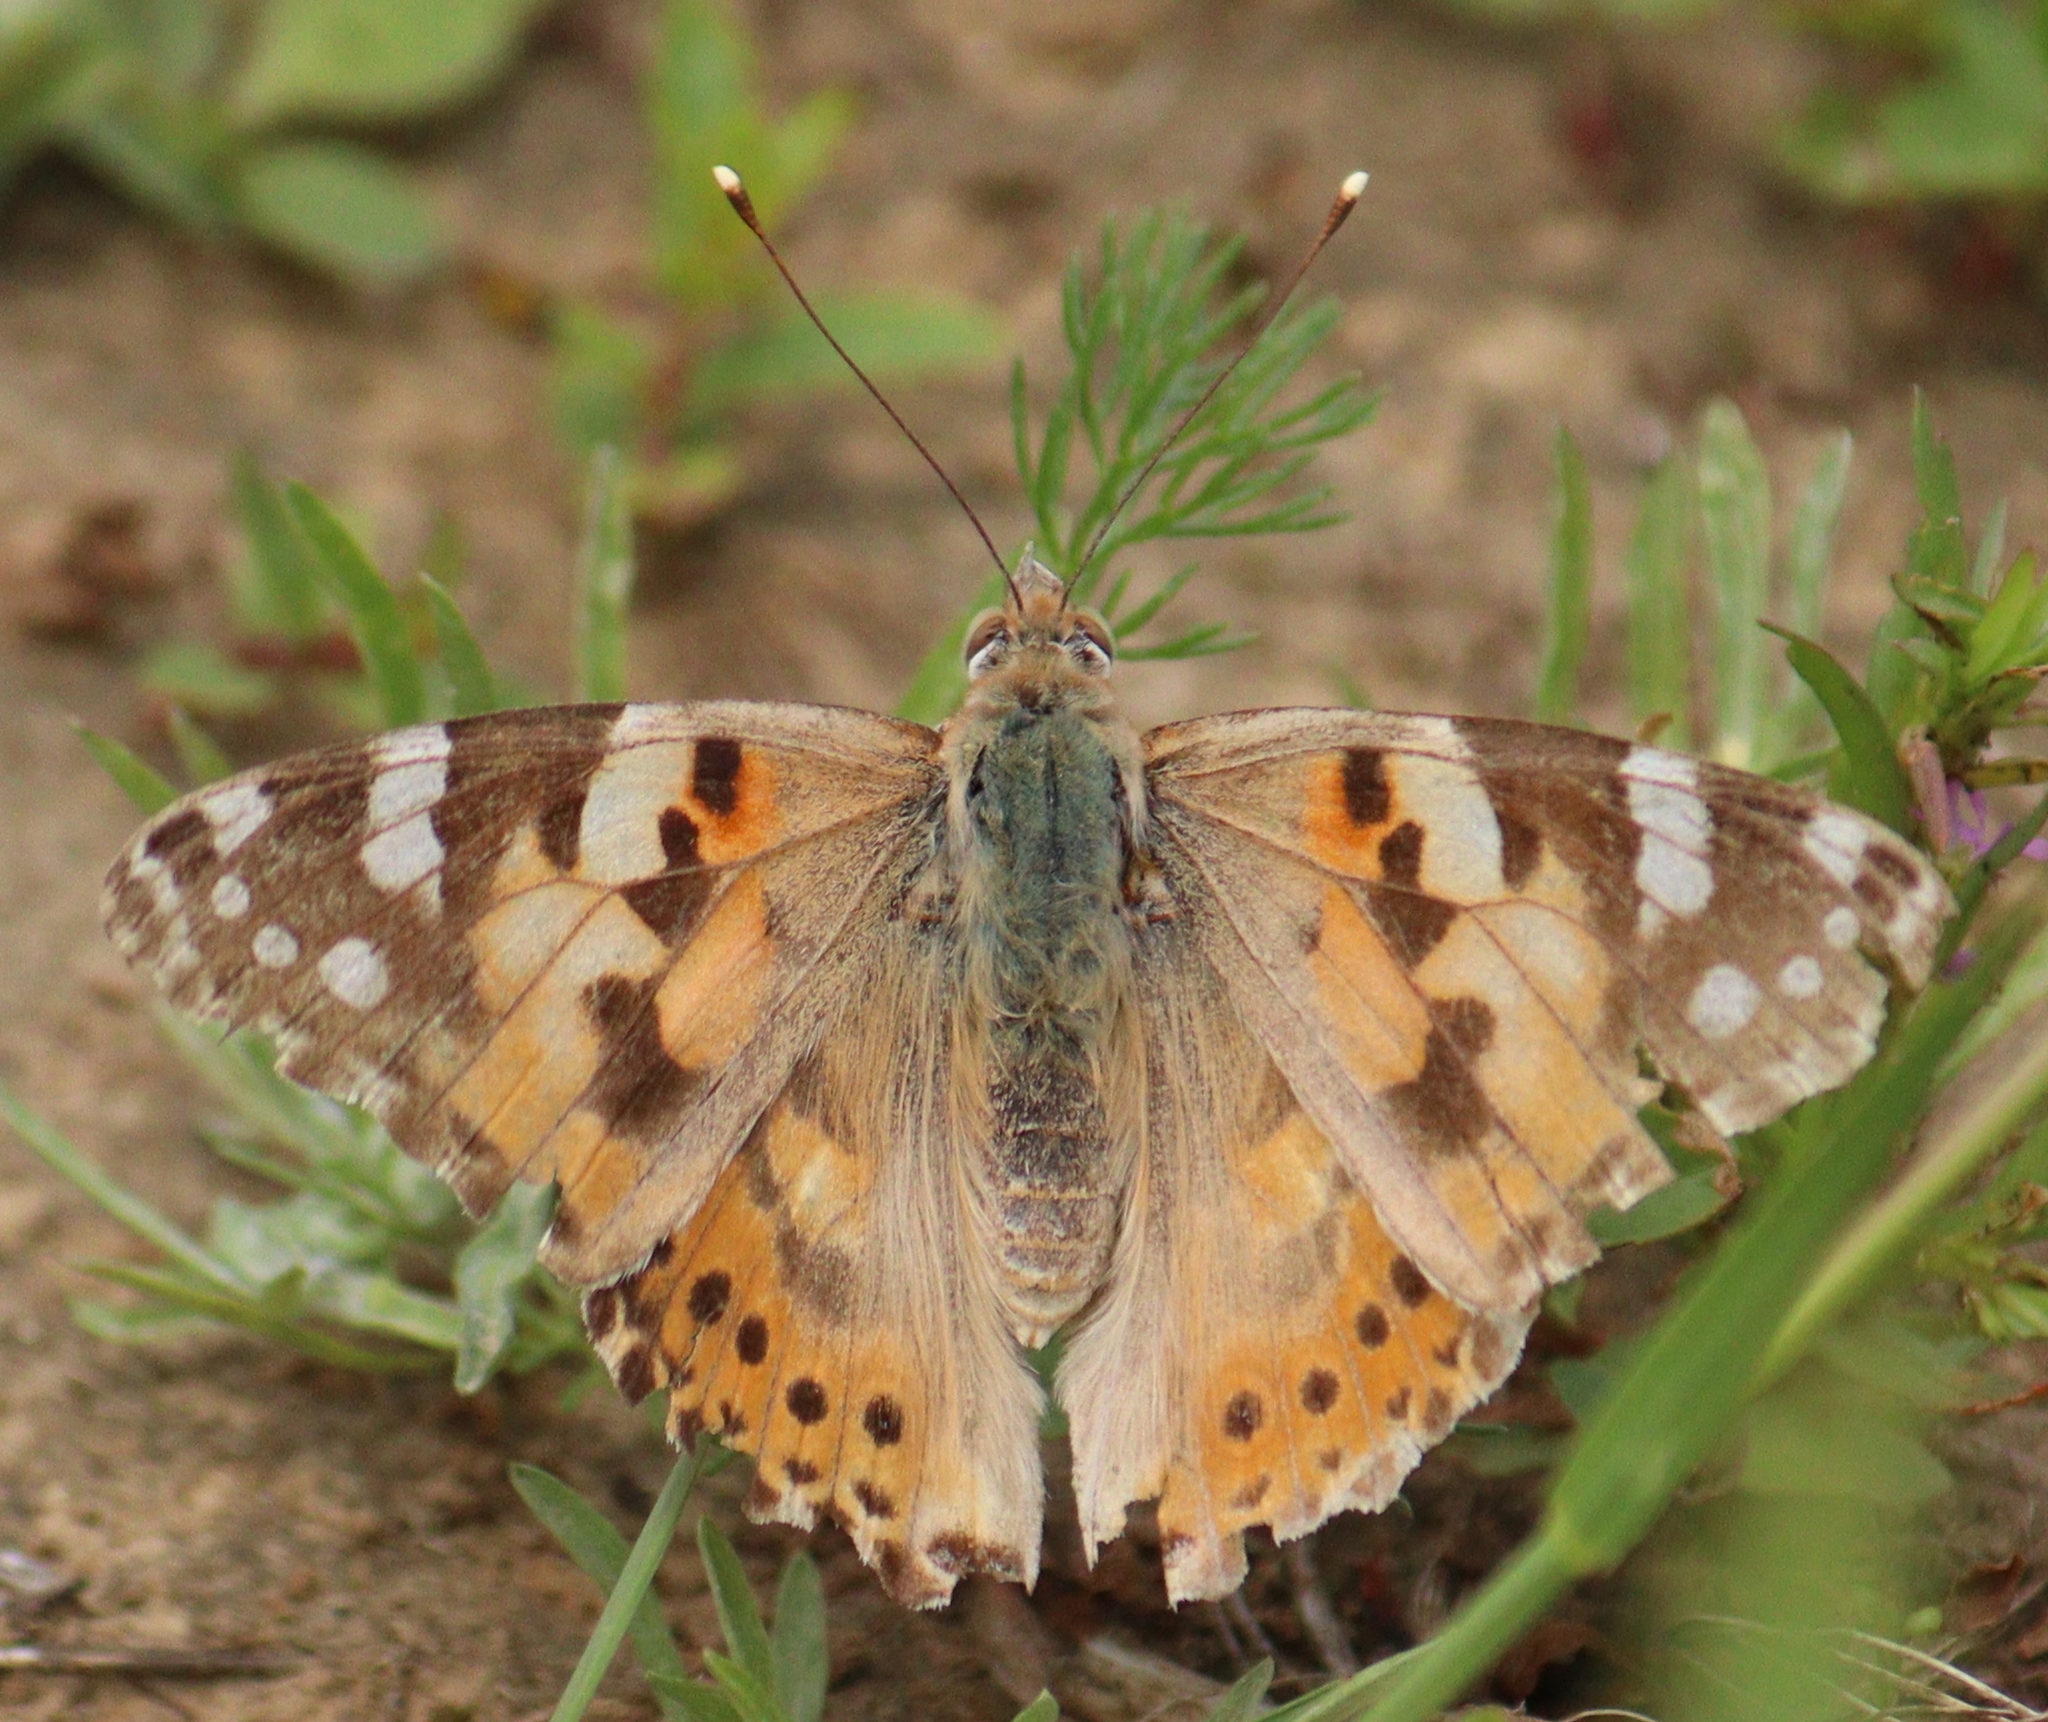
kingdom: Animalia
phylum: Arthropoda
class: Insecta
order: Lepidoptera
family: Nymphalidae
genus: Vanessa
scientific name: Vanessa cardui
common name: Painted lady
